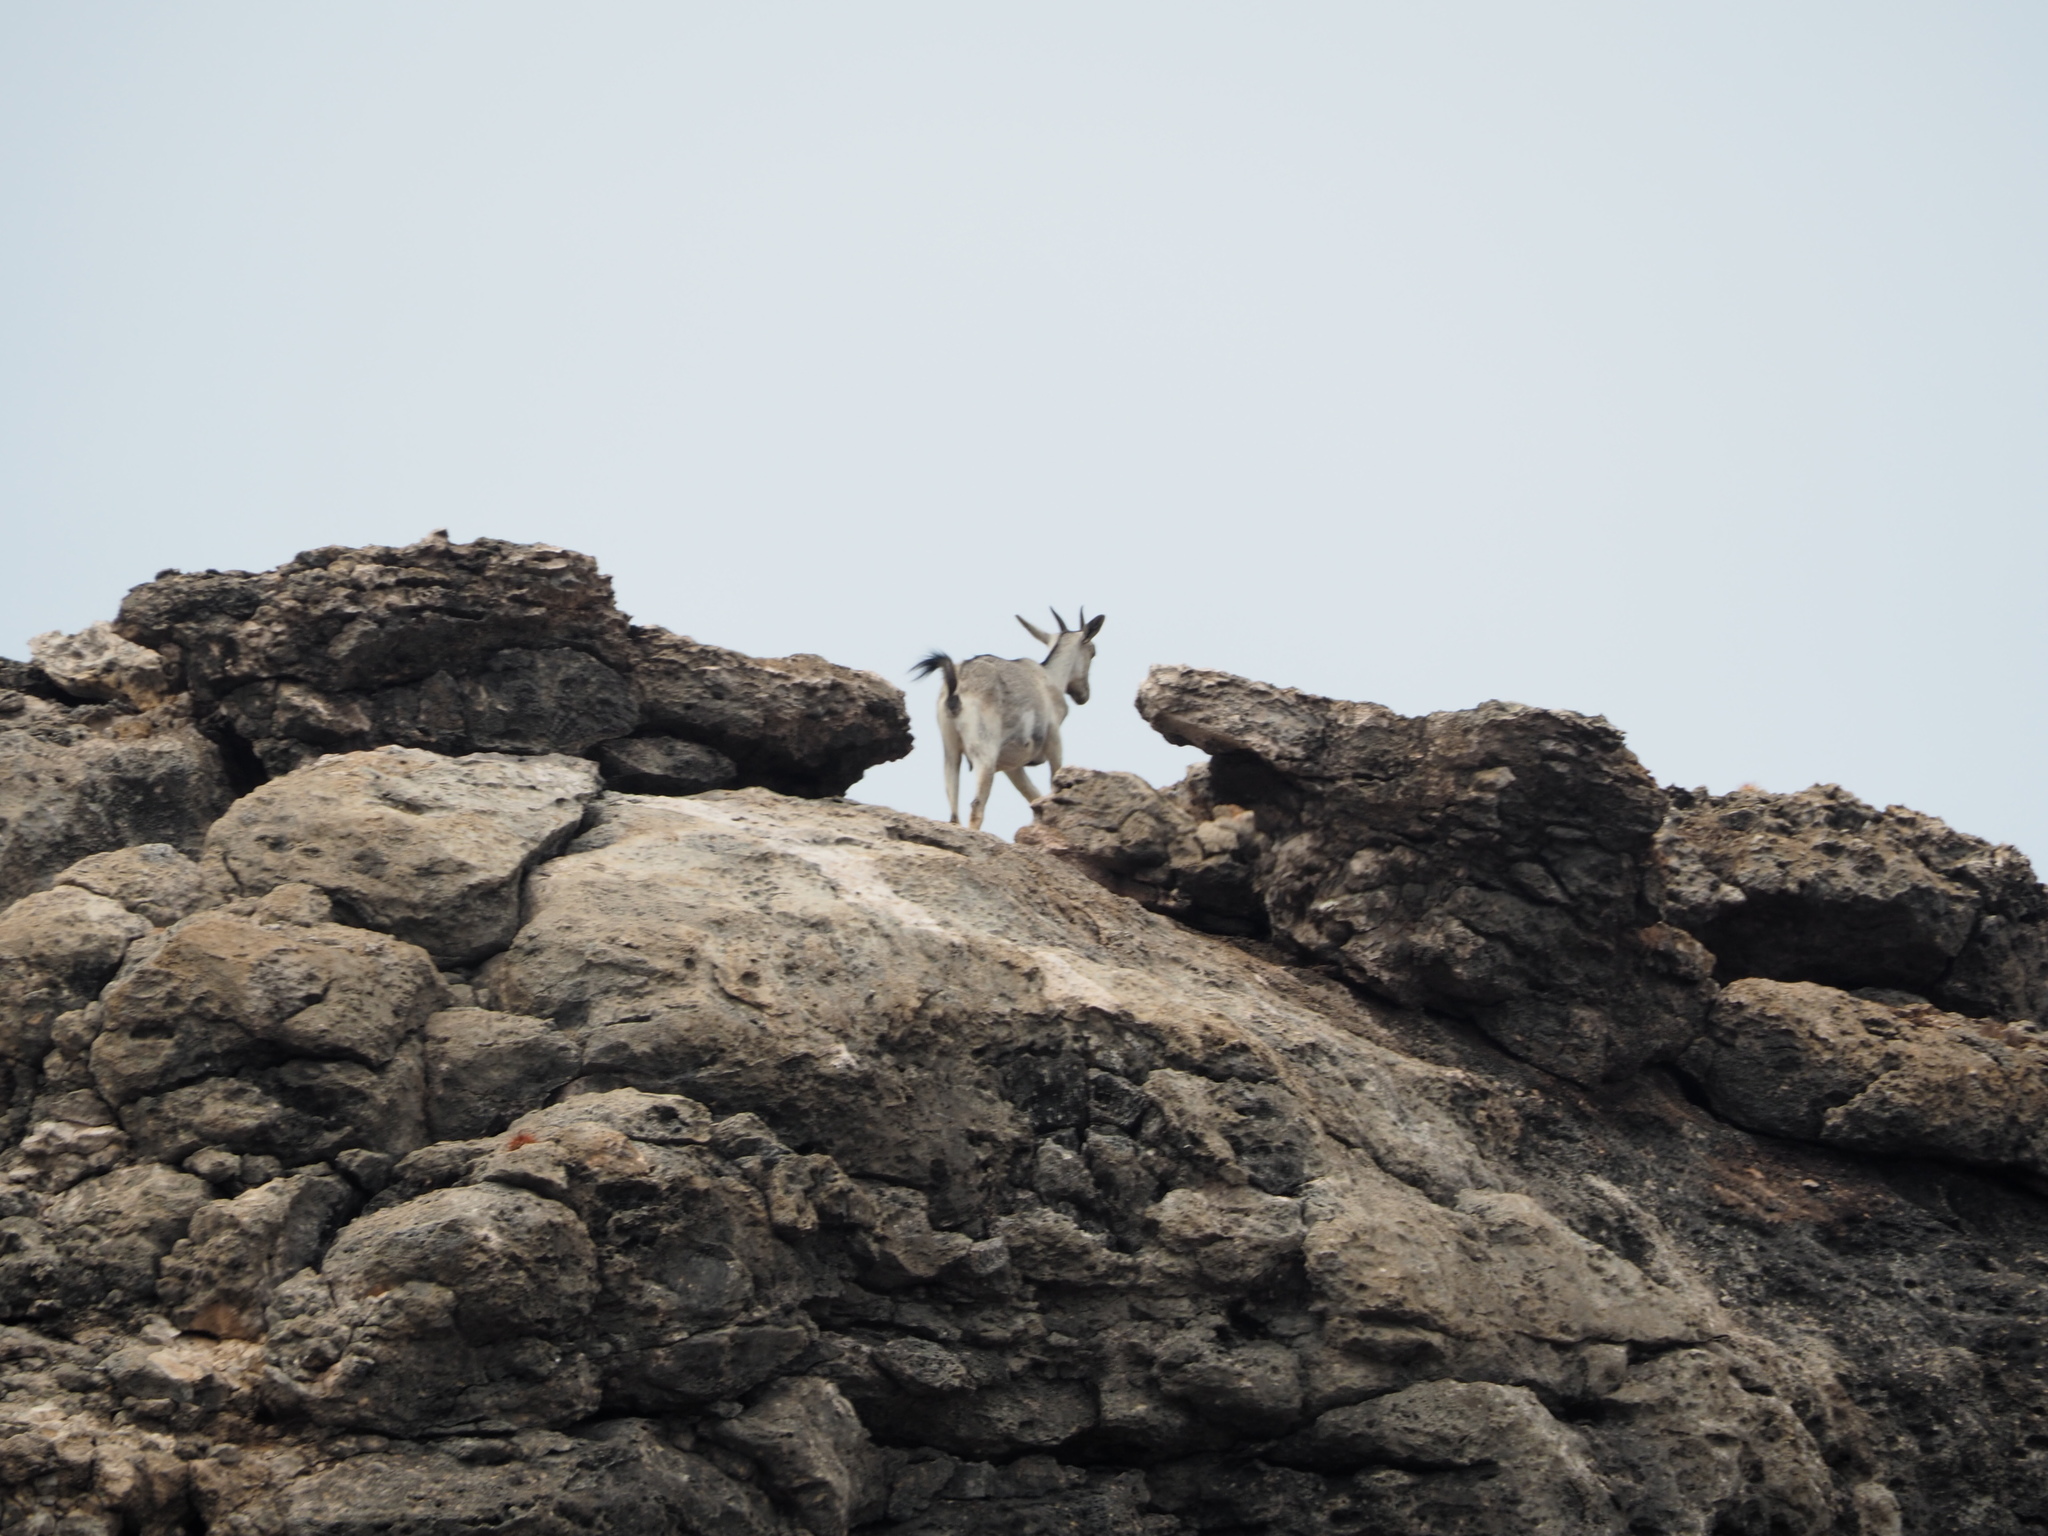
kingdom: Animalia
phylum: Chordata
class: Mammalia
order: Artiodactyla
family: Bovidae
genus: Capra
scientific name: Capra hircus
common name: Domestic goat
